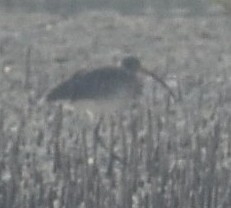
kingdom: Animalia
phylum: Chordata
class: Aves
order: Charadriiformes
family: Scolopacidae
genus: Numenius
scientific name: Numenius arquata
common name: Eurasian curlew
